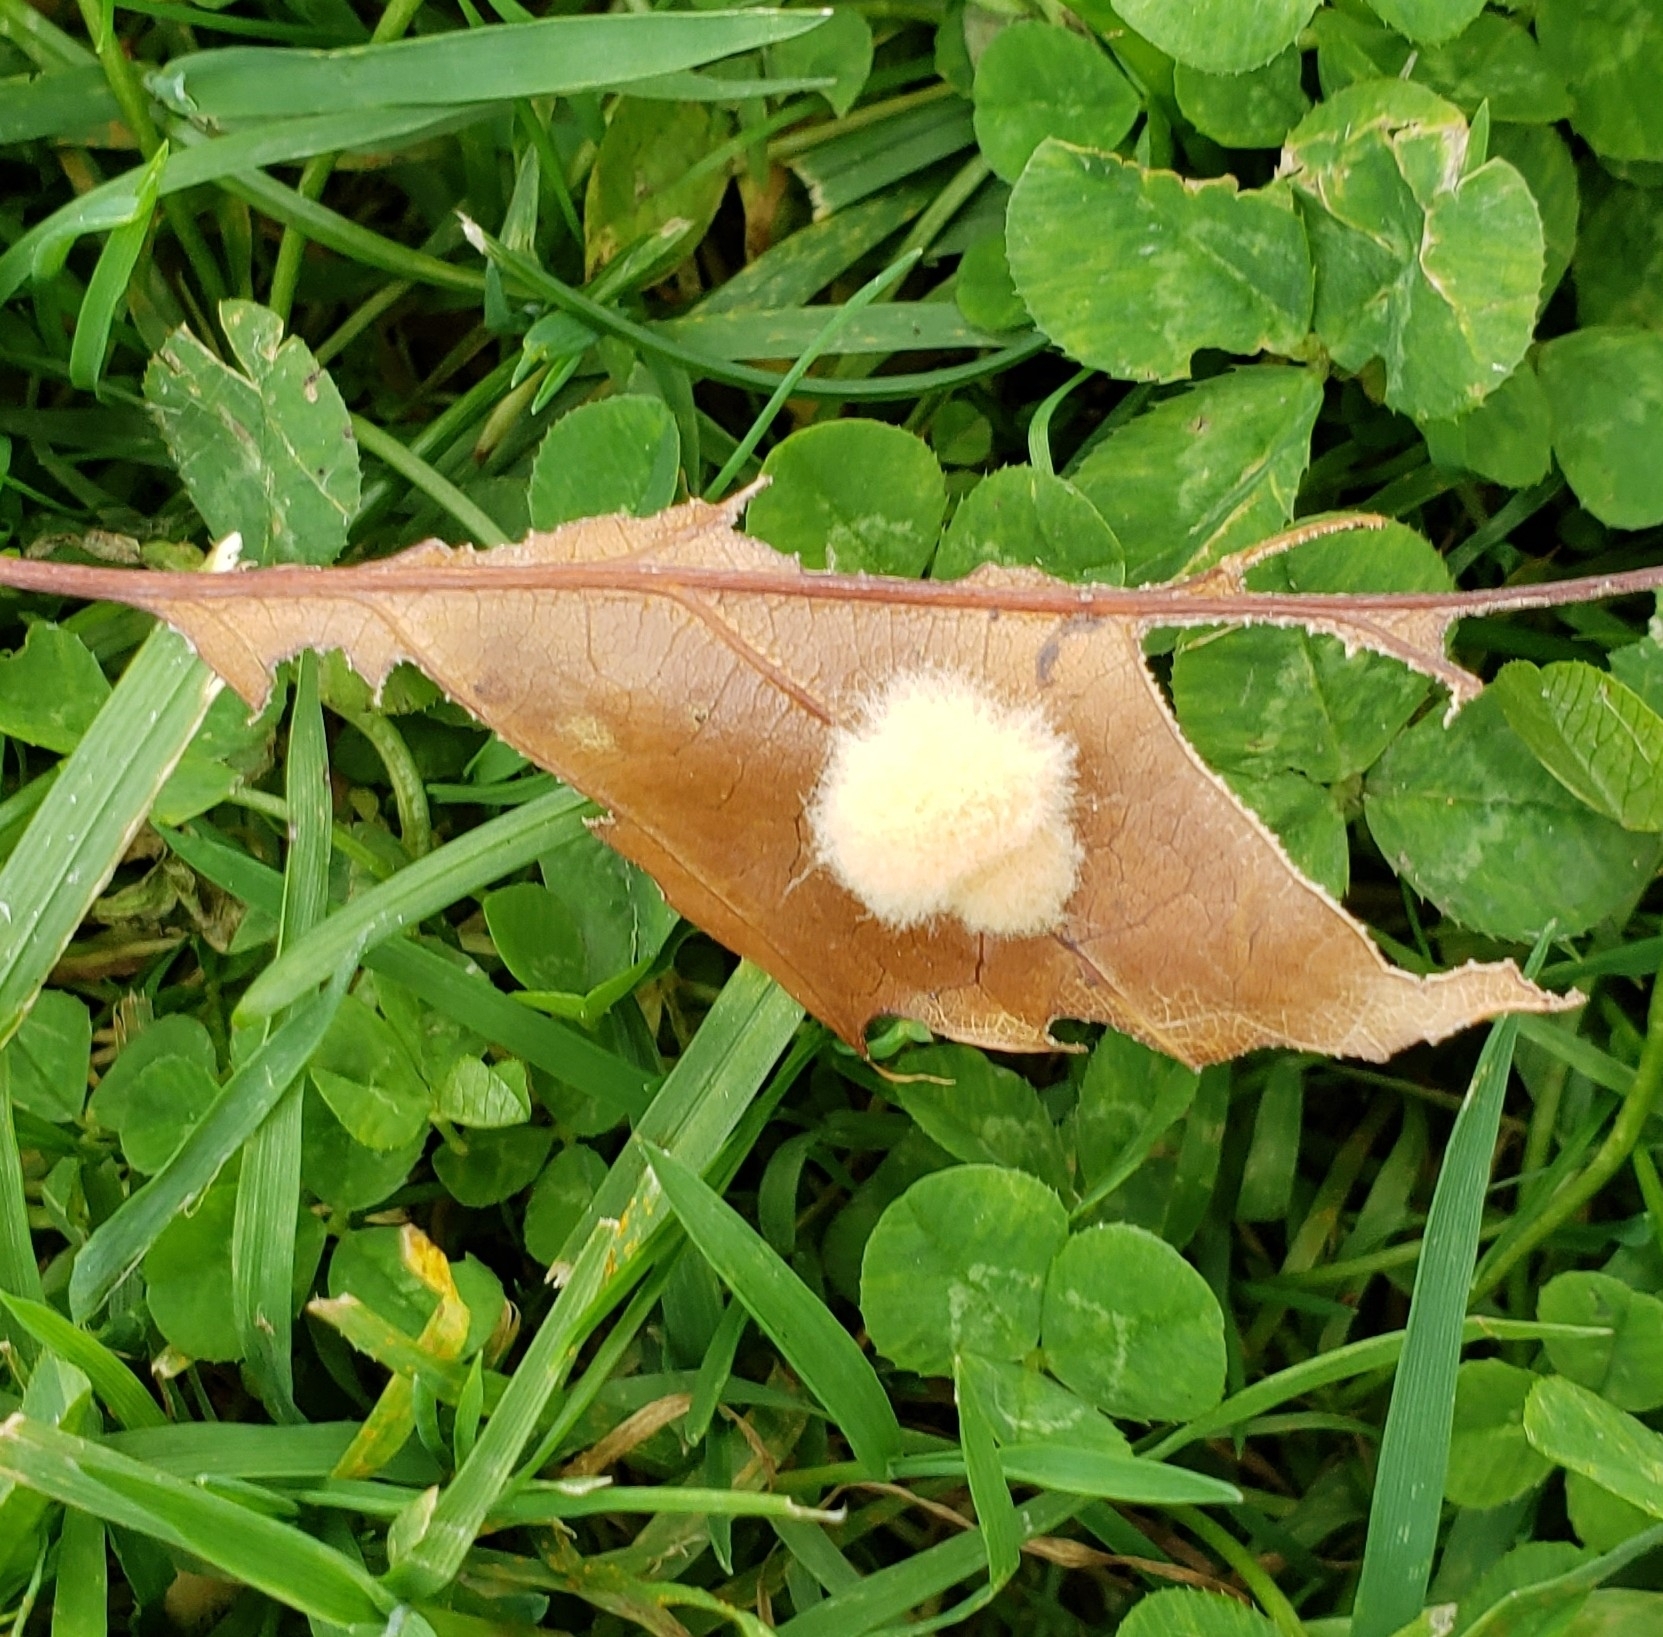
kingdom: Animalia
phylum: Arthropoda
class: Insecta
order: Hymenoptera
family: Cynipidae
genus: Callirhytis
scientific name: Callirhytis
